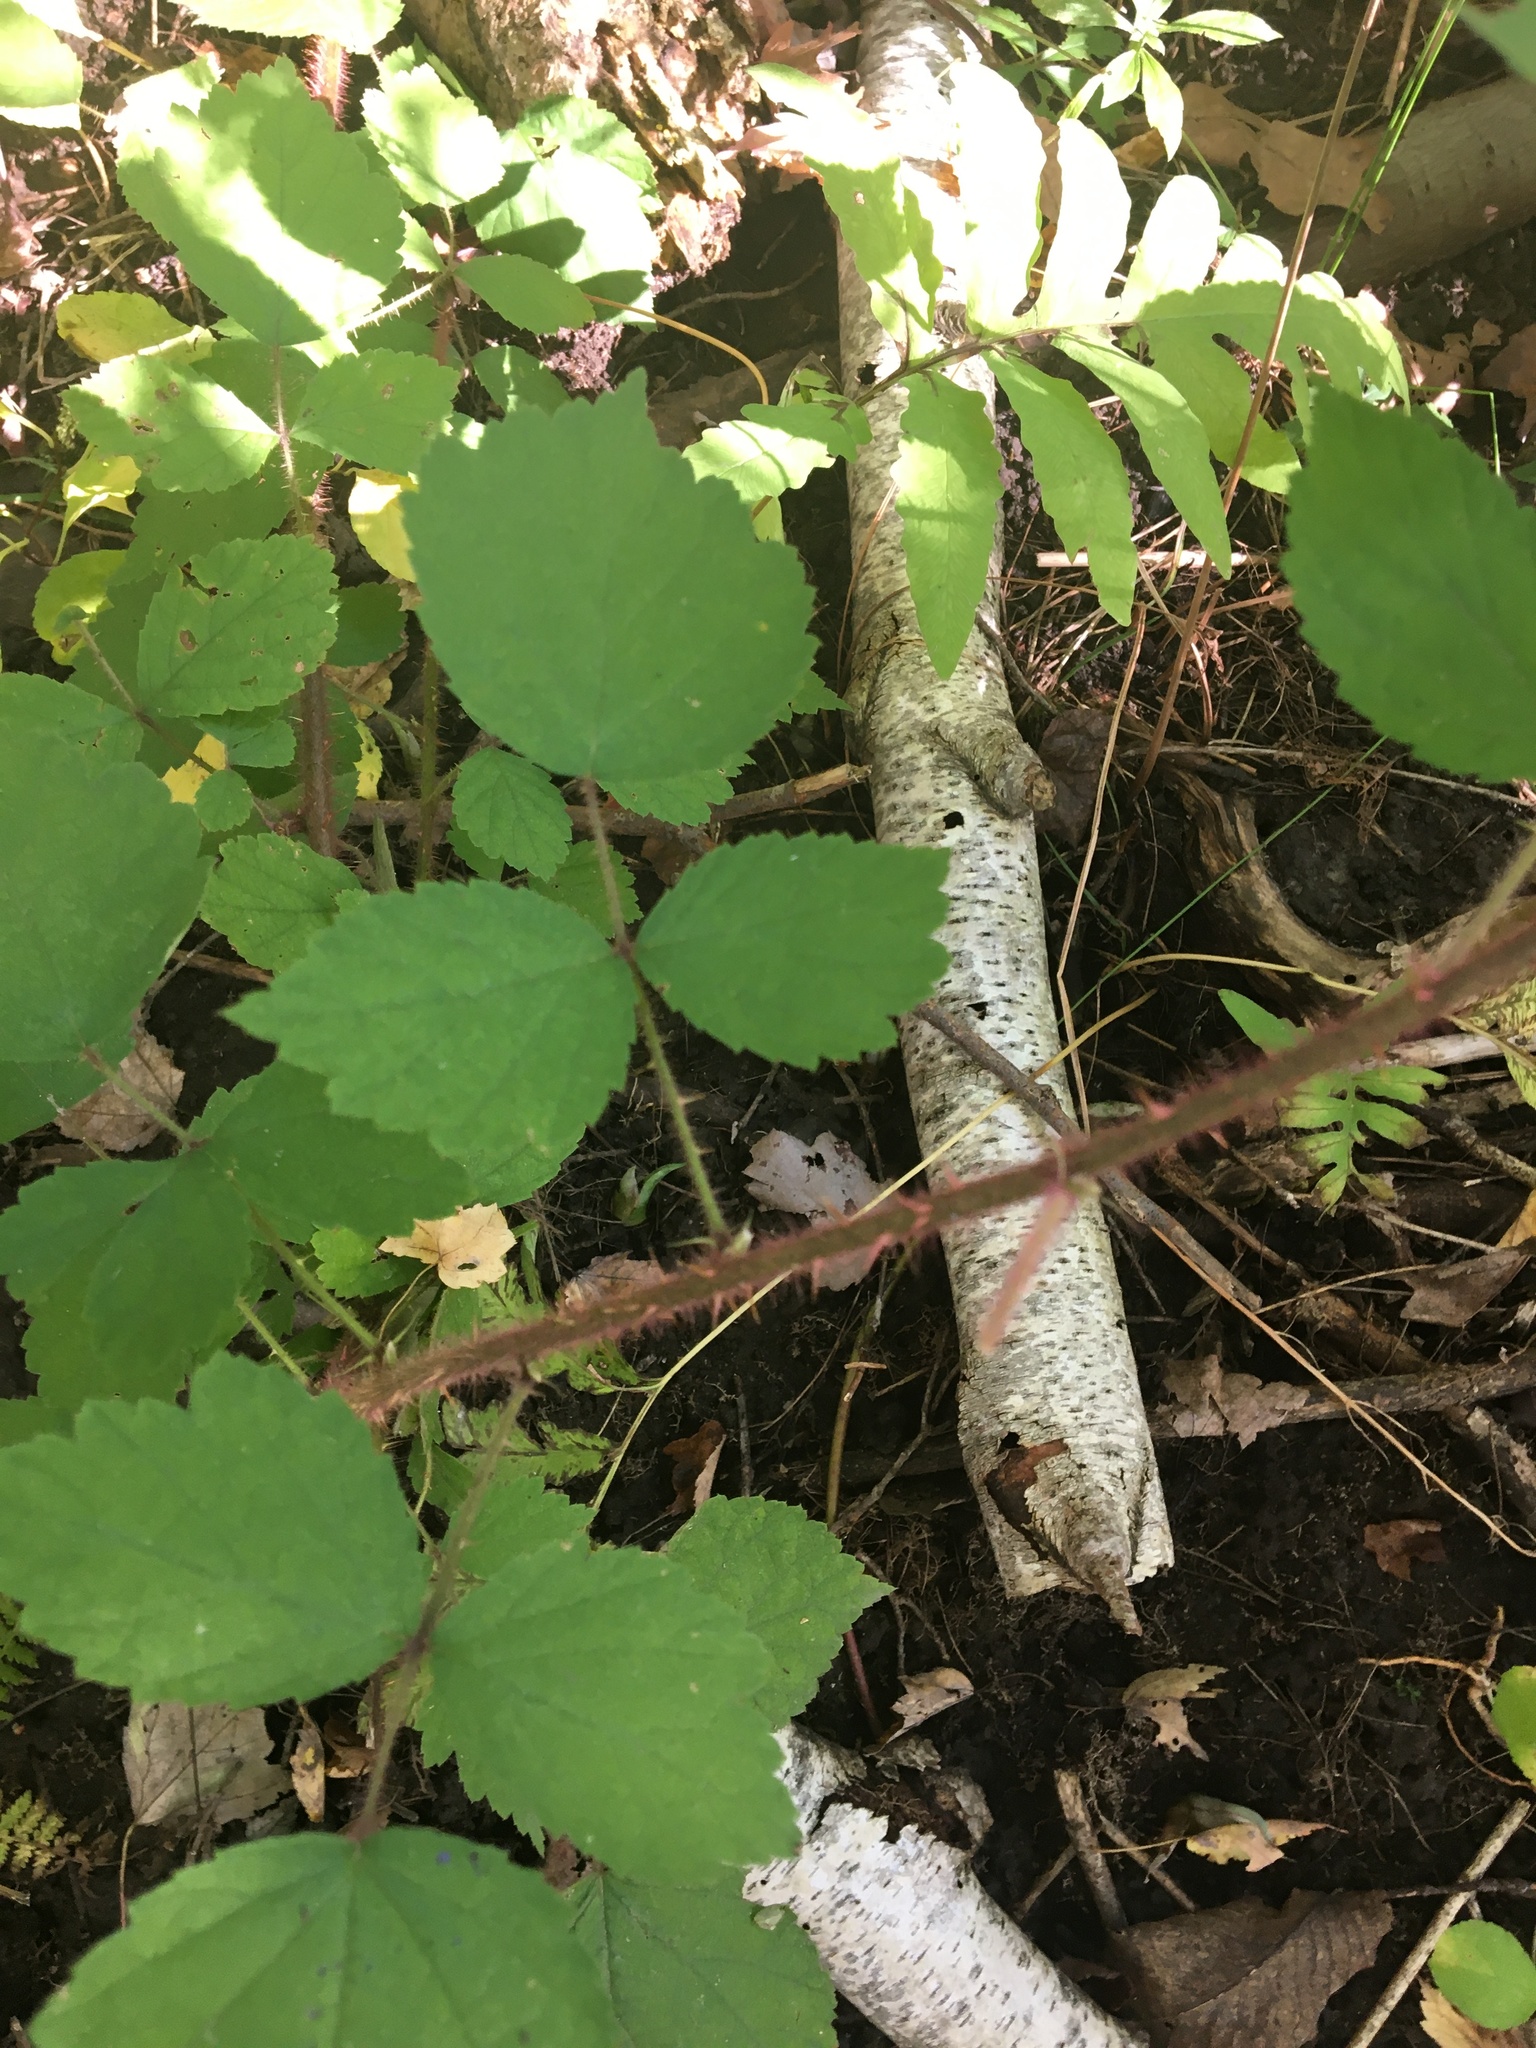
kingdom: Plantae
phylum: Tracheophyta
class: Magnoliopsida
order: Rosales
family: Rosaceae
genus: Rubus
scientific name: Rubus phoenicolasius
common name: Japanese wineberry
